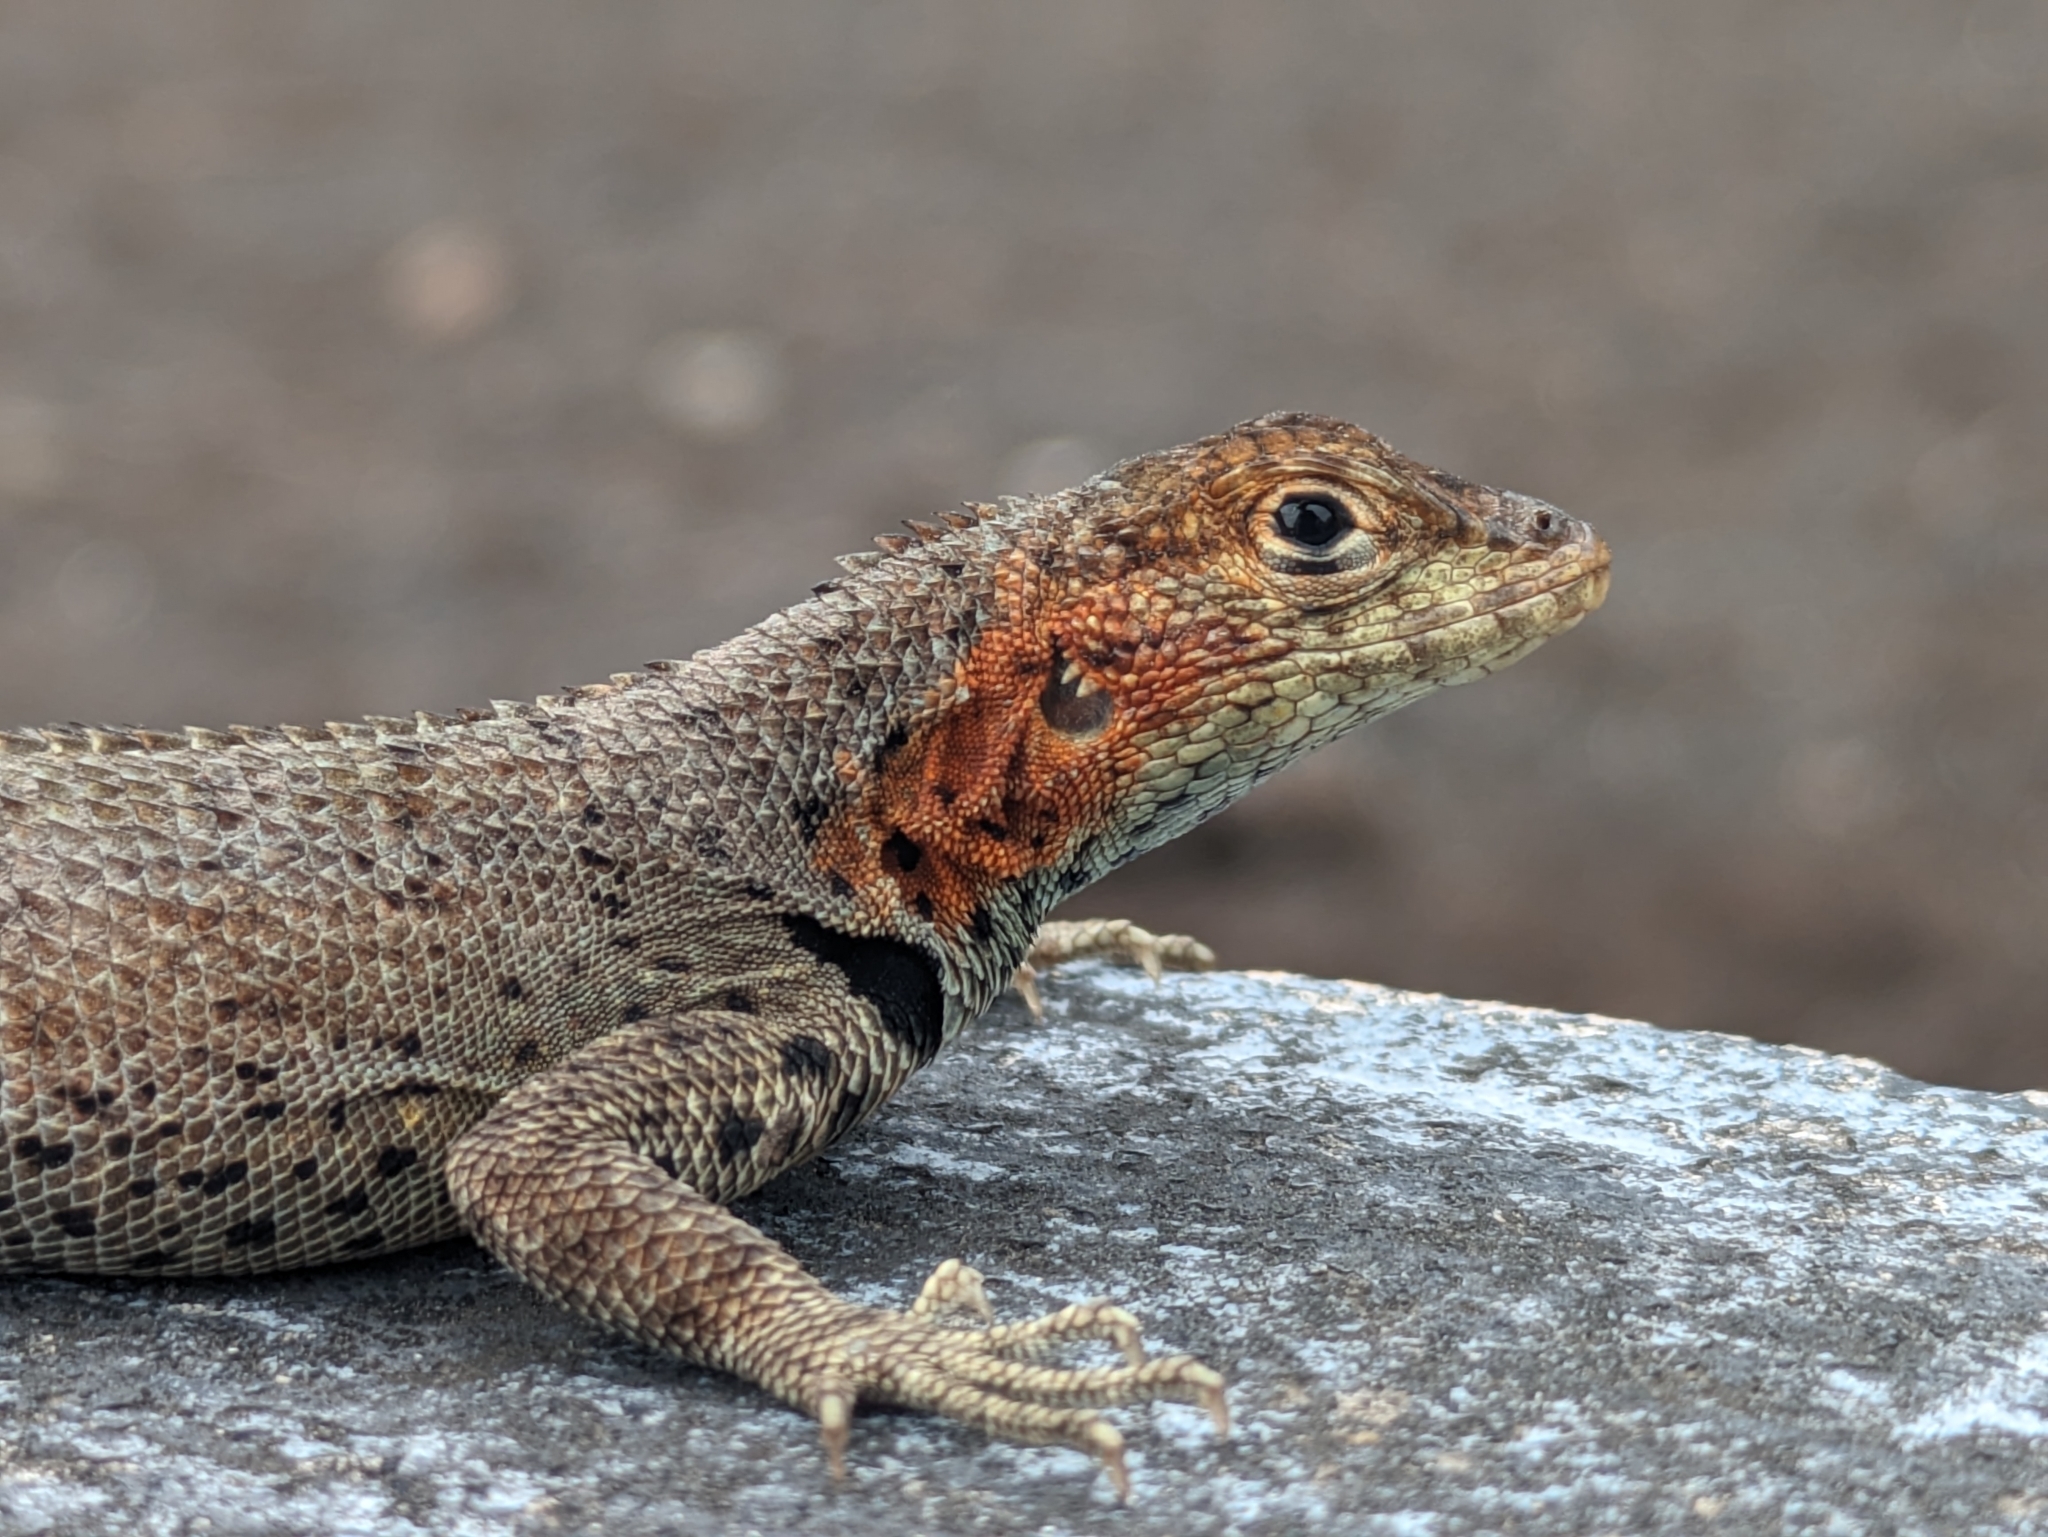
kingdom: Animalia
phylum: Chordata
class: Squamata
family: Tropiduridae
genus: Microlophus
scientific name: Microlophus albemarlensis
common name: Galapagos lava lizard
